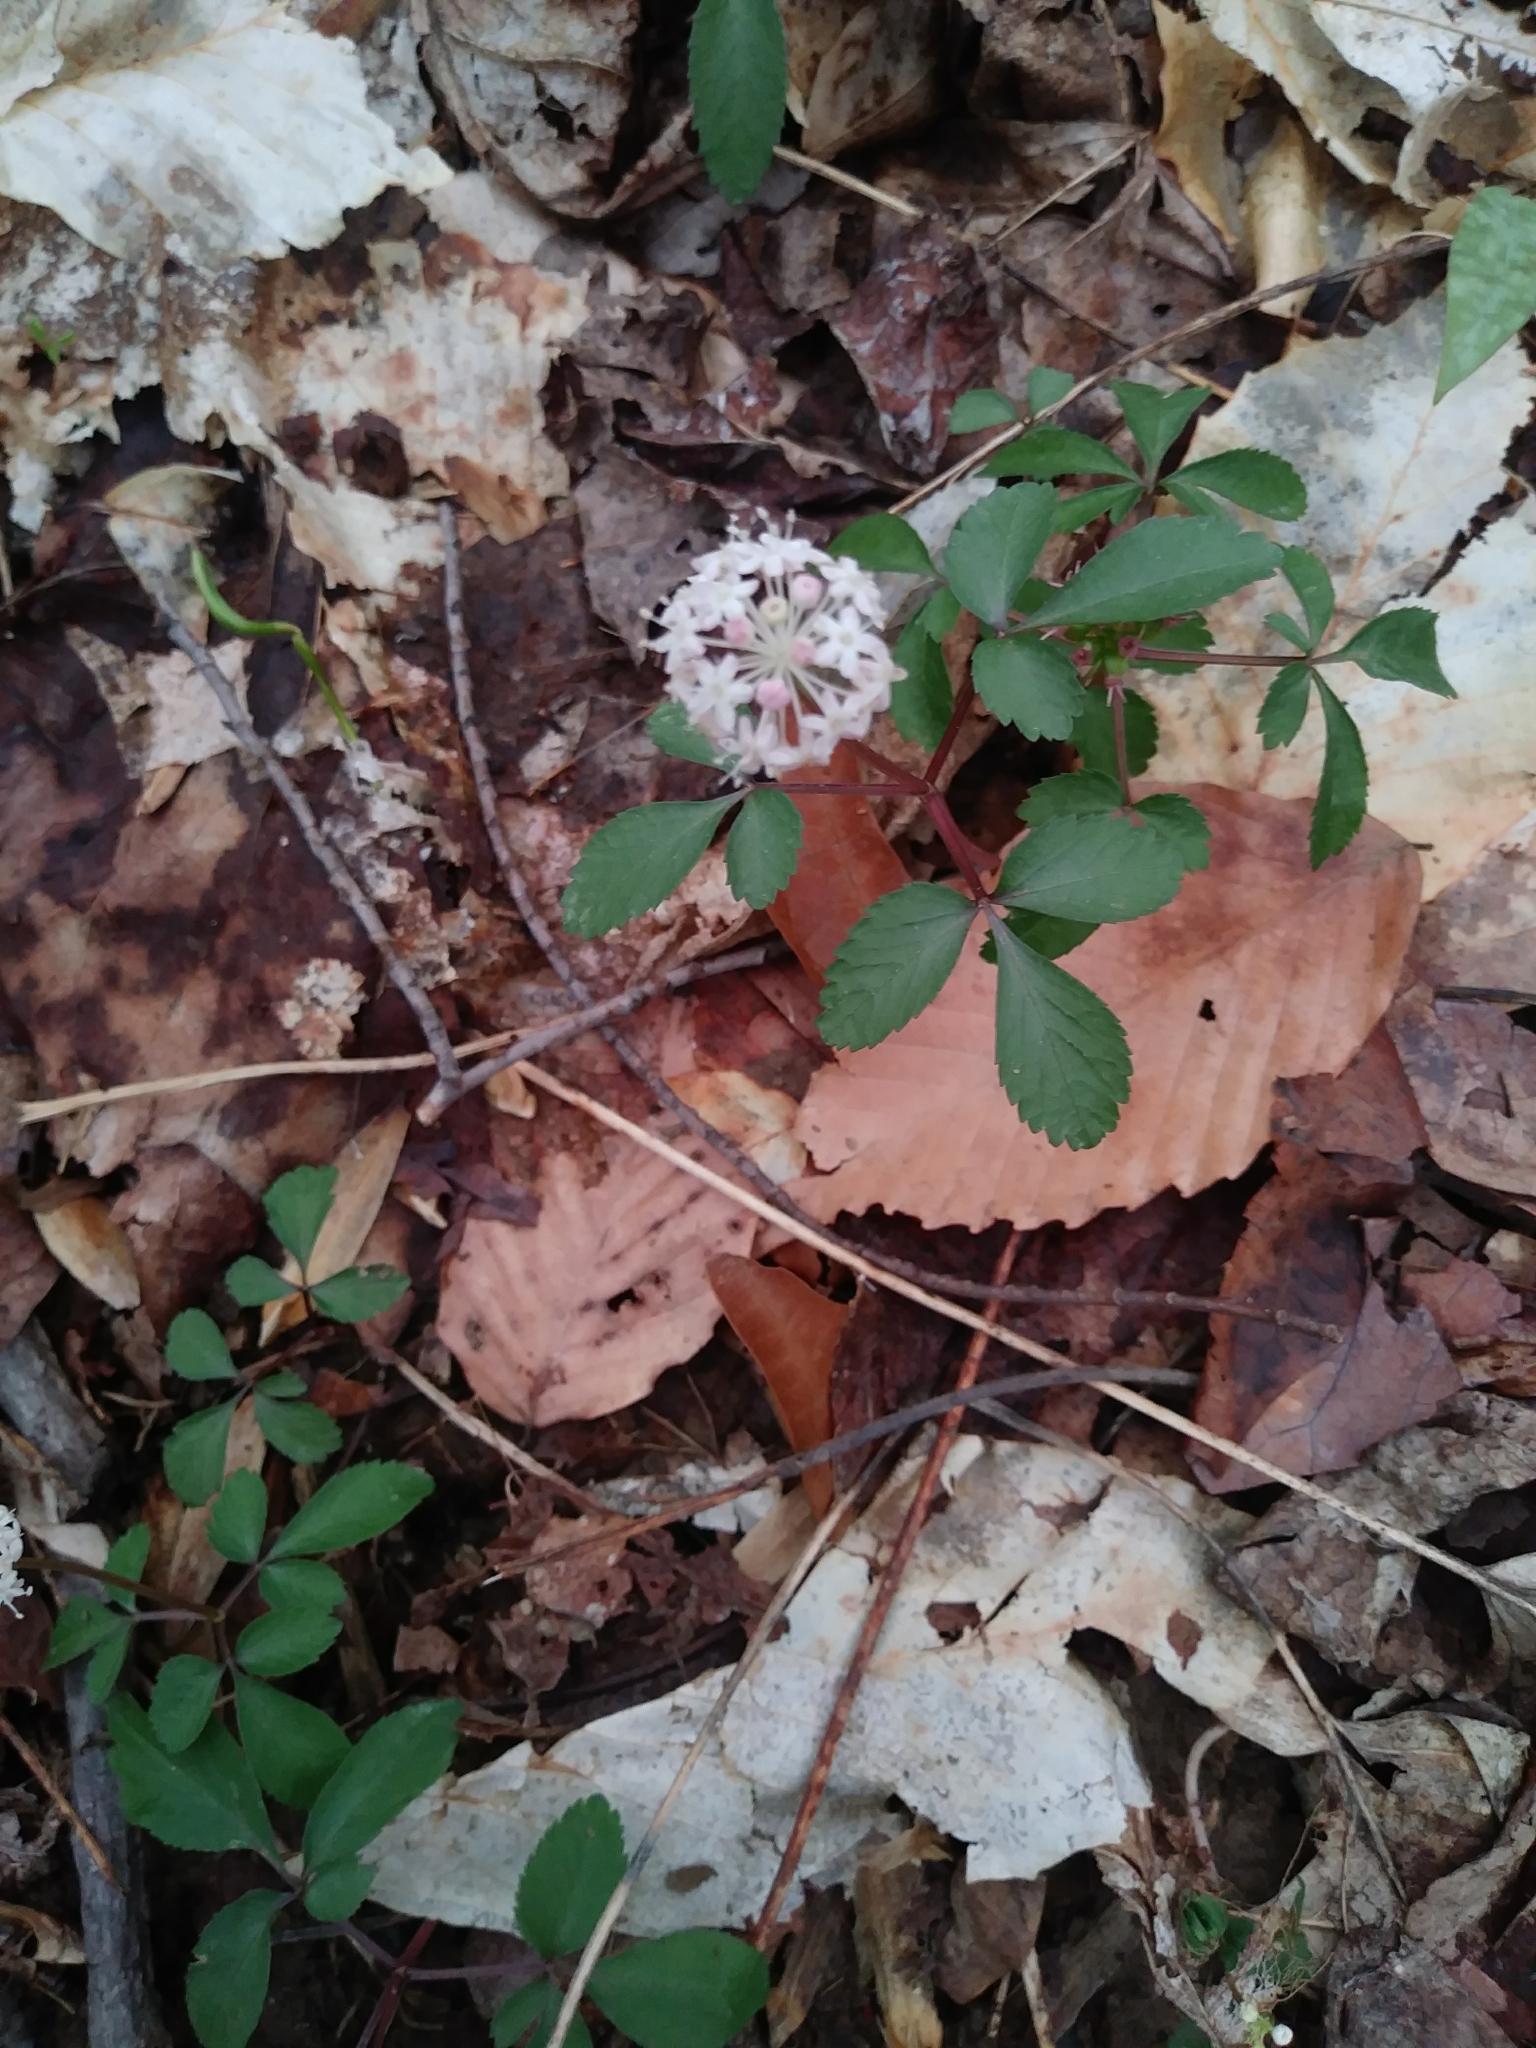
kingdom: Plantae
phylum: Tracheophyta
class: Magnoliopsida
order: Apiales
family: Araliaceae
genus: Panax
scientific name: Panax trifolius
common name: Dwarf ginseng
